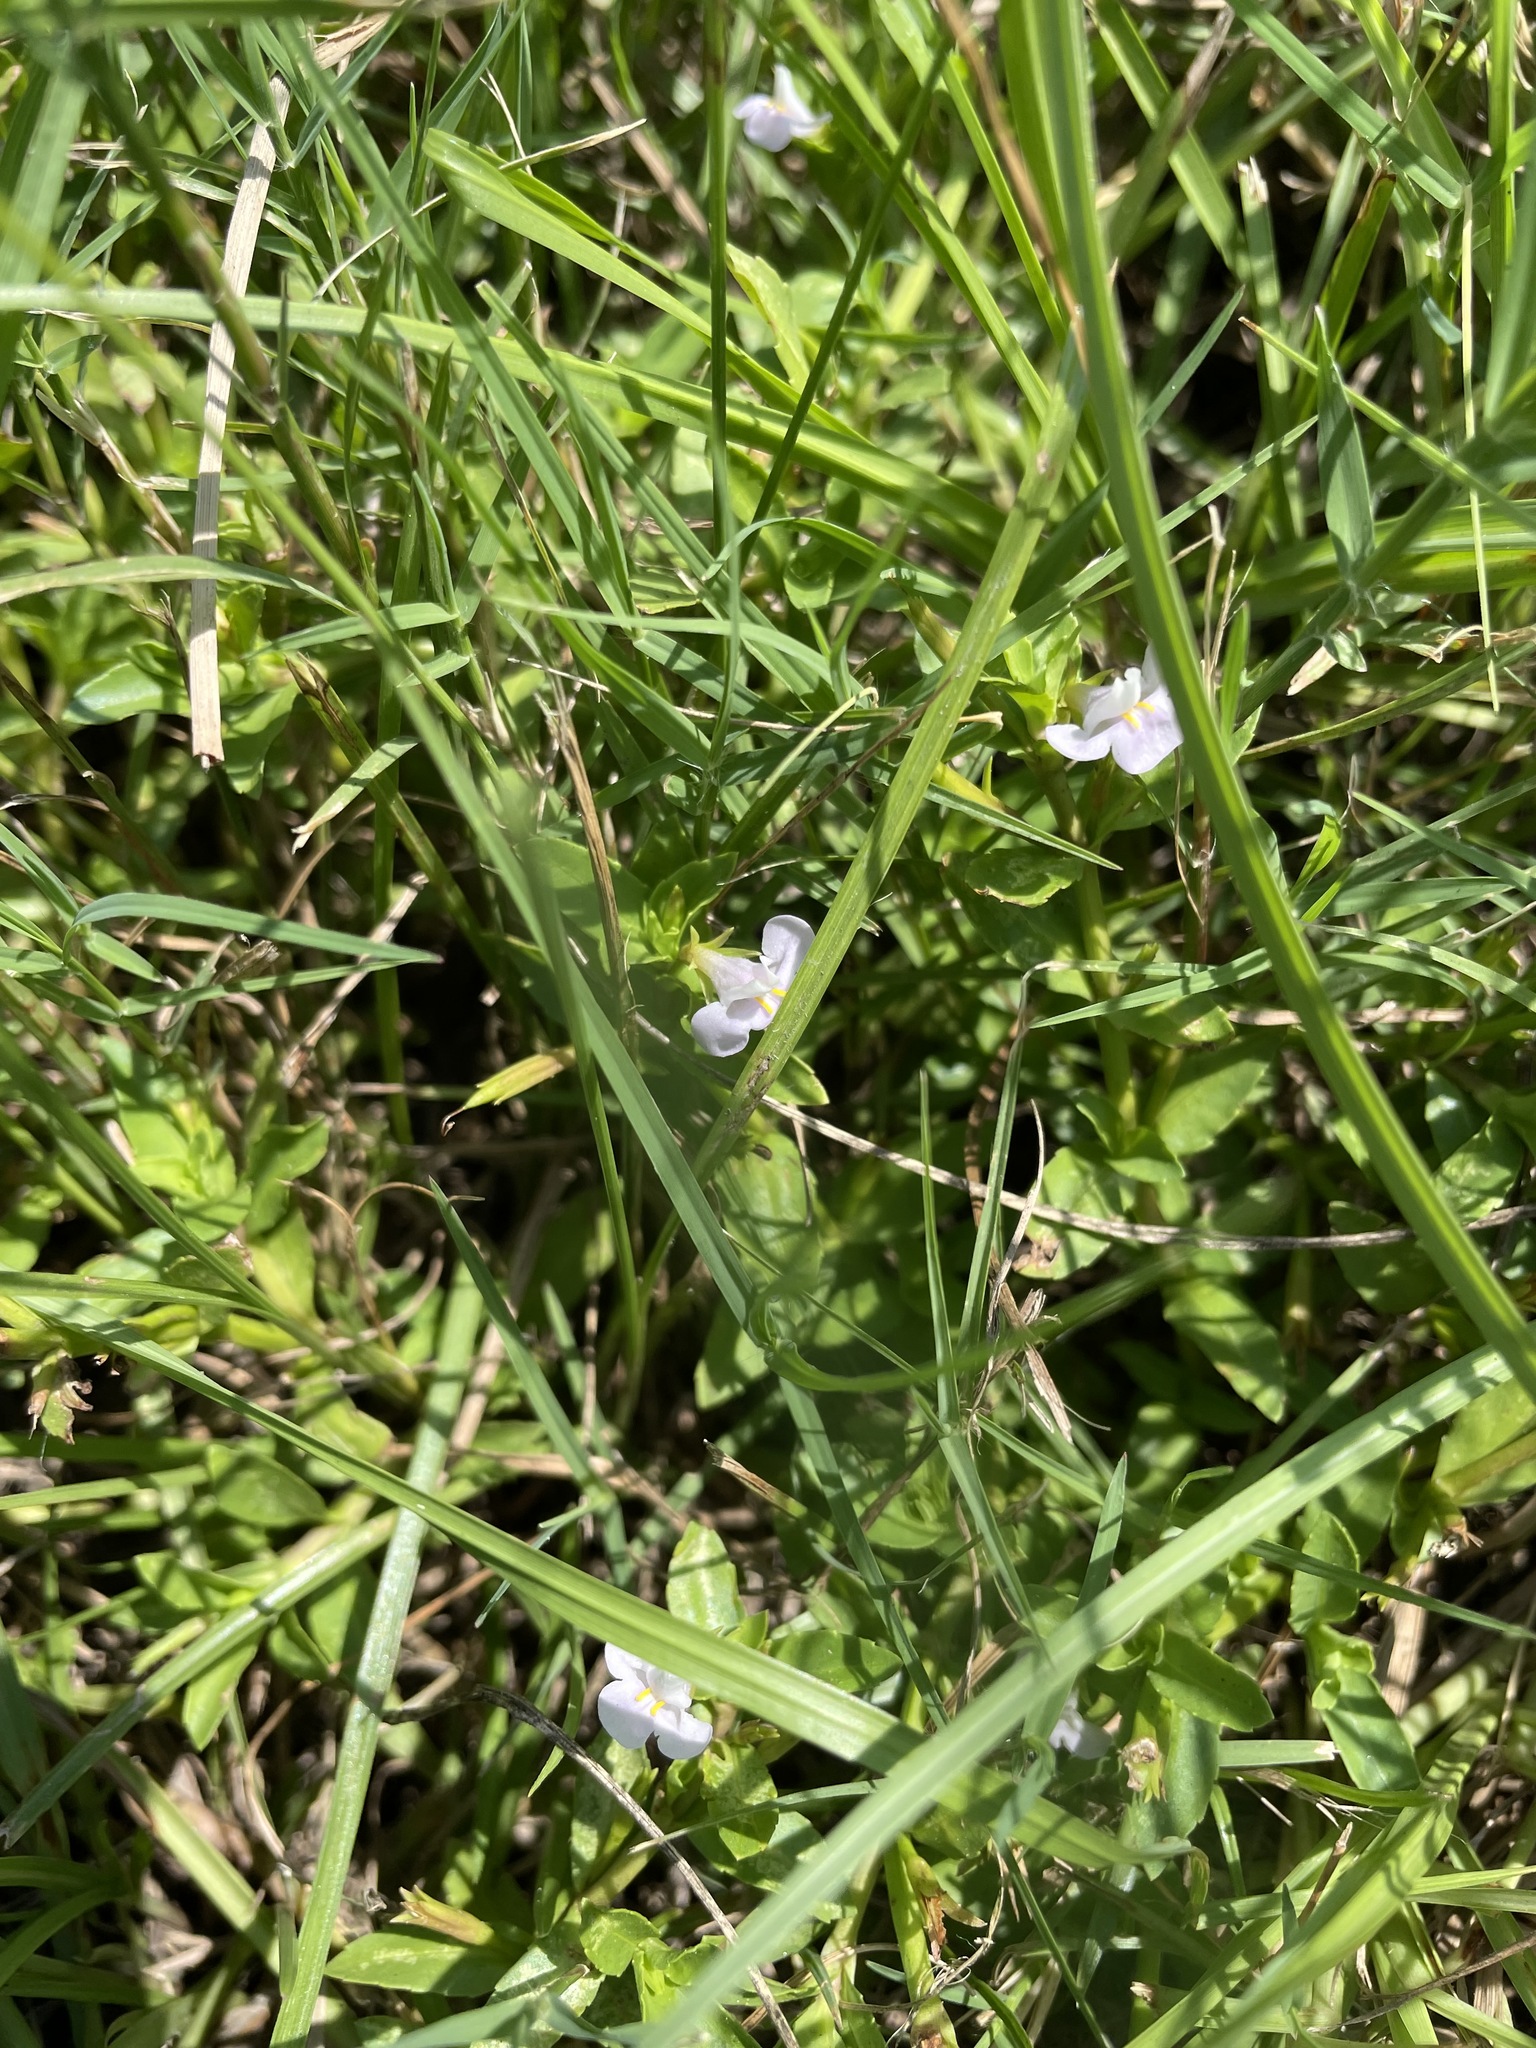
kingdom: Plantae
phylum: Tracheophyta
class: Magnoliopsida
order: Lamiales
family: Linderniaceae
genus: Bonnaya
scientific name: Bonnaya antipoda
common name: Sparrow false pimpernel
